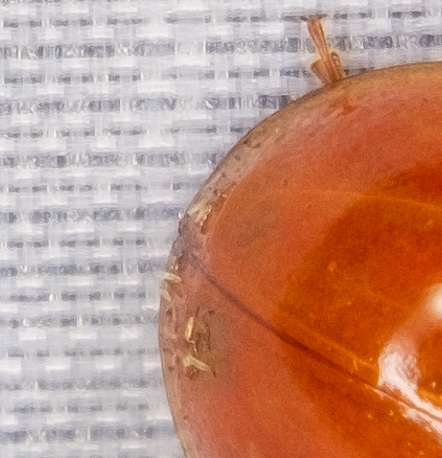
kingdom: Fungi
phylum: Ascomycota
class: Laboulbeniomycetes
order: Laboulbeniales
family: Laboulbeniaceae
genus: Hesperomyces
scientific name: Hesperomyces harmoniae
